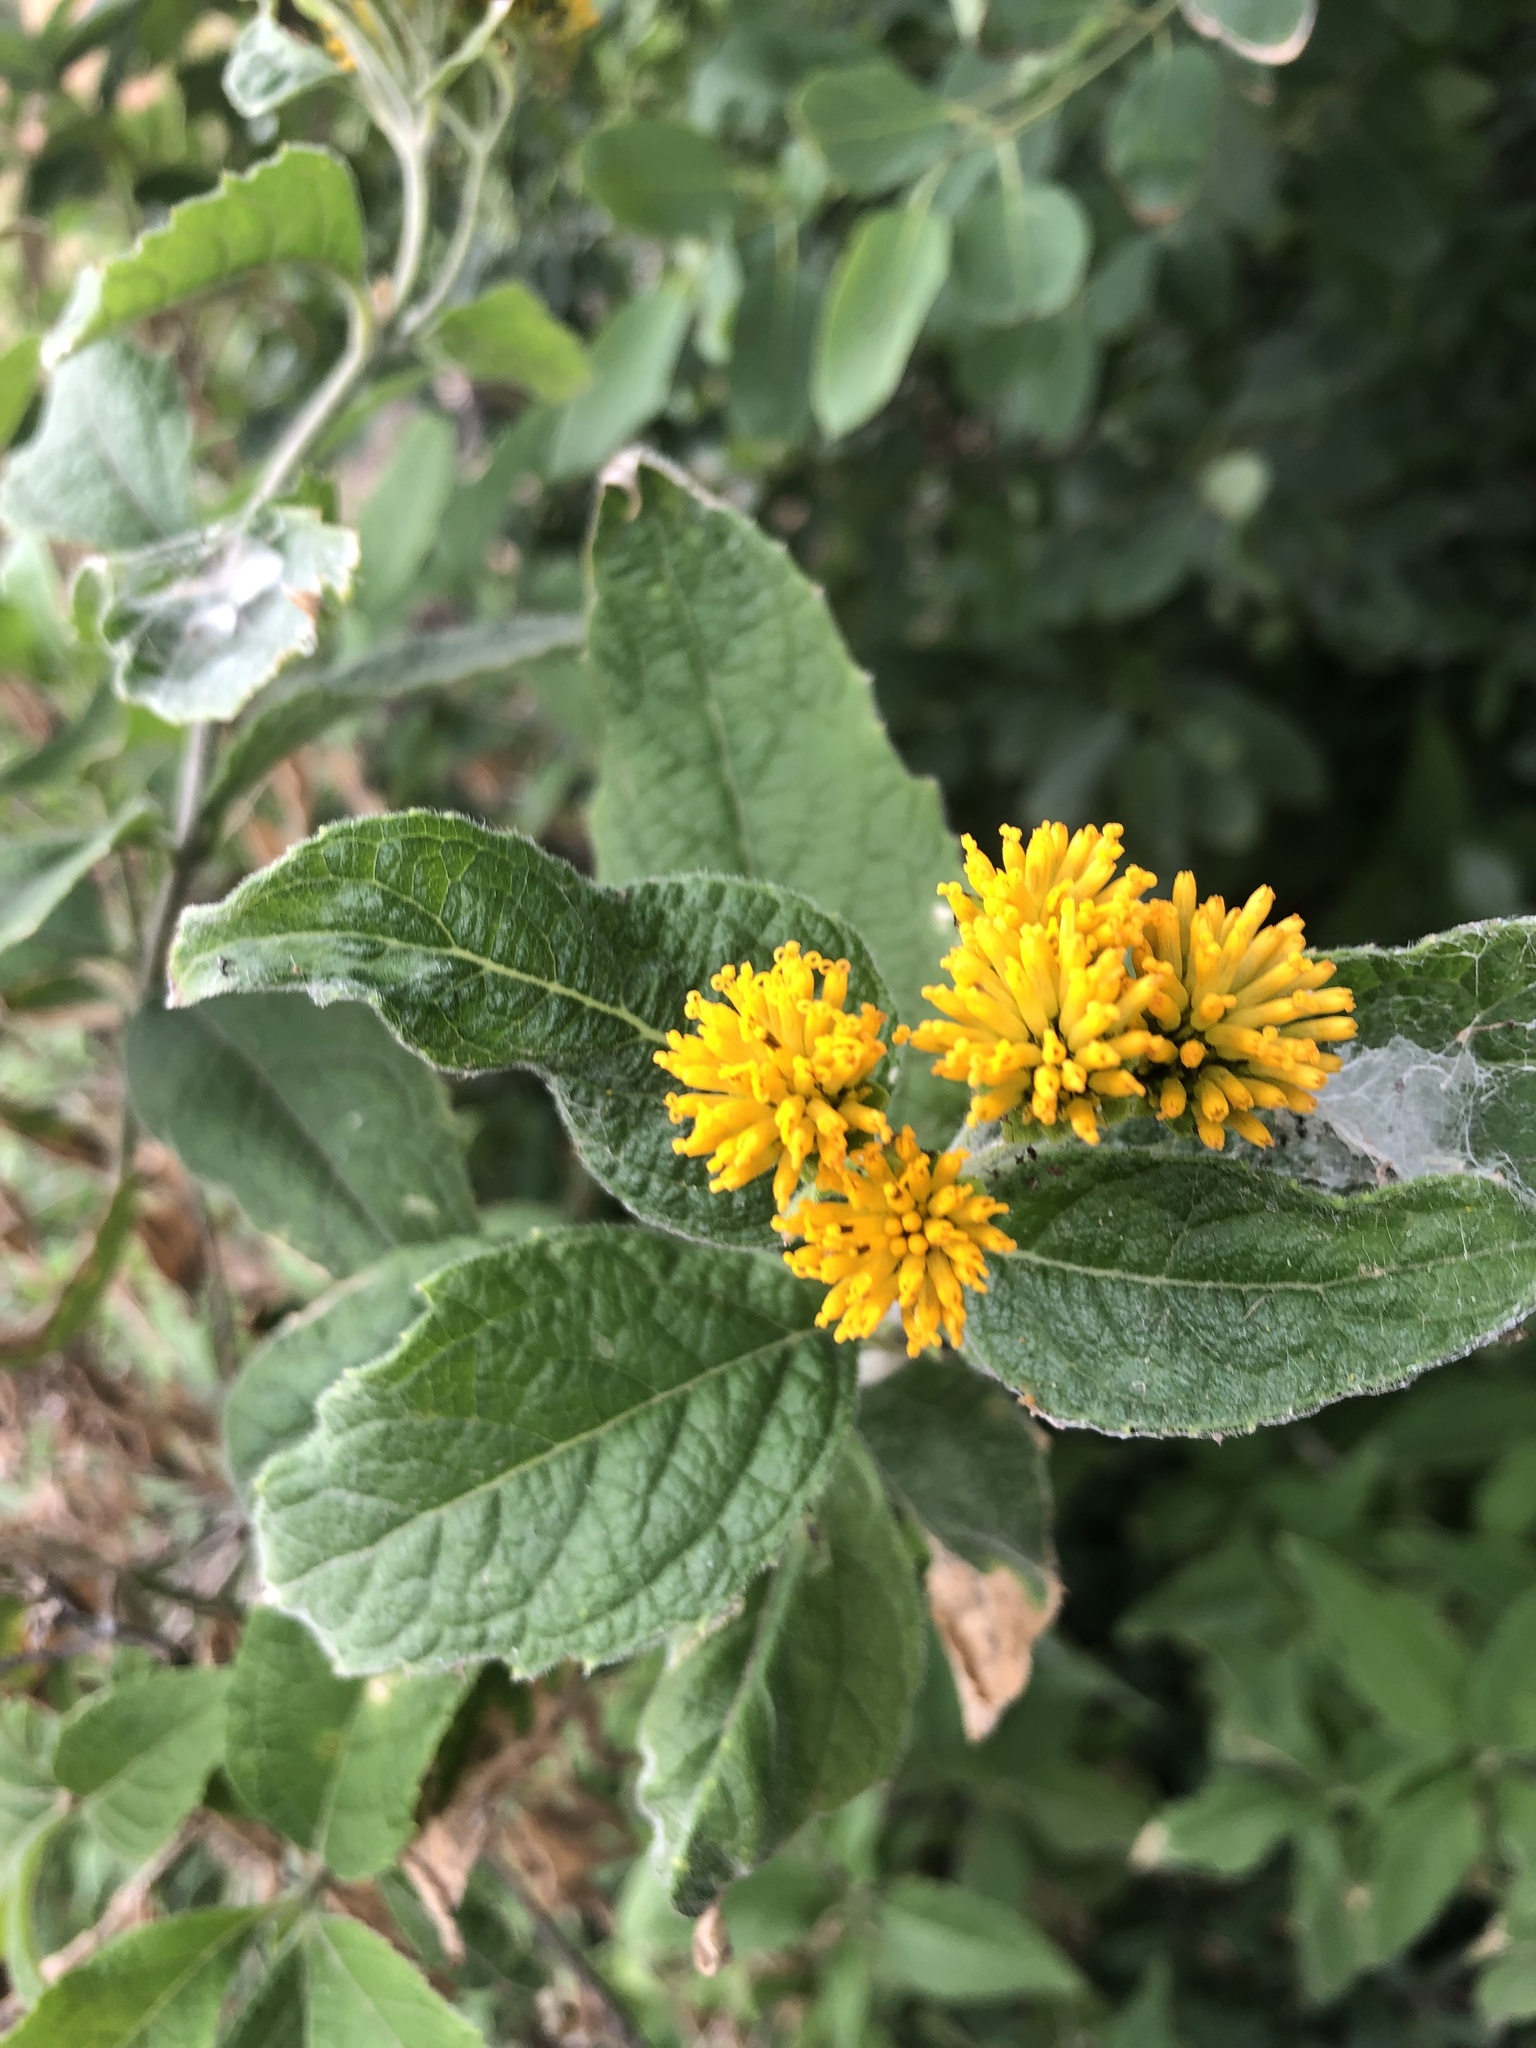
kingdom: Plantae
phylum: Tracheophyta
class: Magnoliopsida
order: Asterales
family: Asteraceae
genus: Verbesina
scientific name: Verbesina serrata
